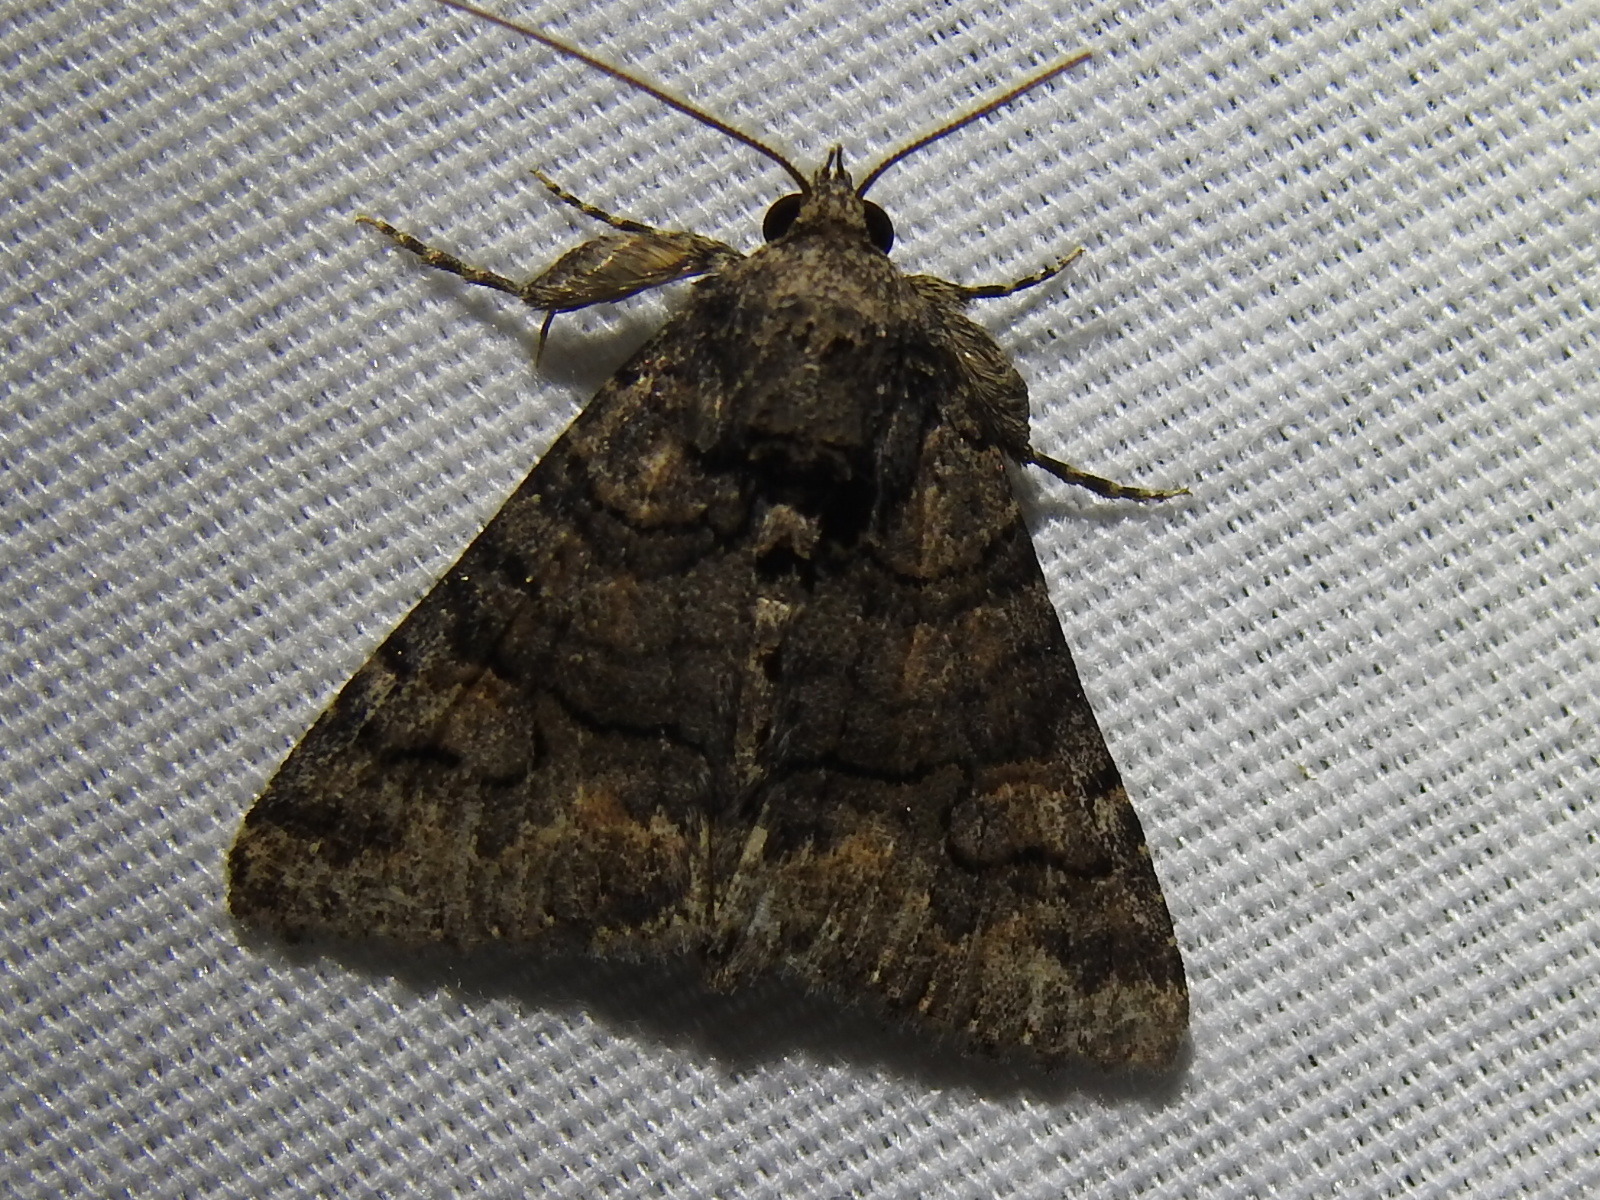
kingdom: Animalia
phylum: Arthropoda
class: Insecta
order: Lepidoptera
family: Erebidae
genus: Elousa
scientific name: Elousa mima
